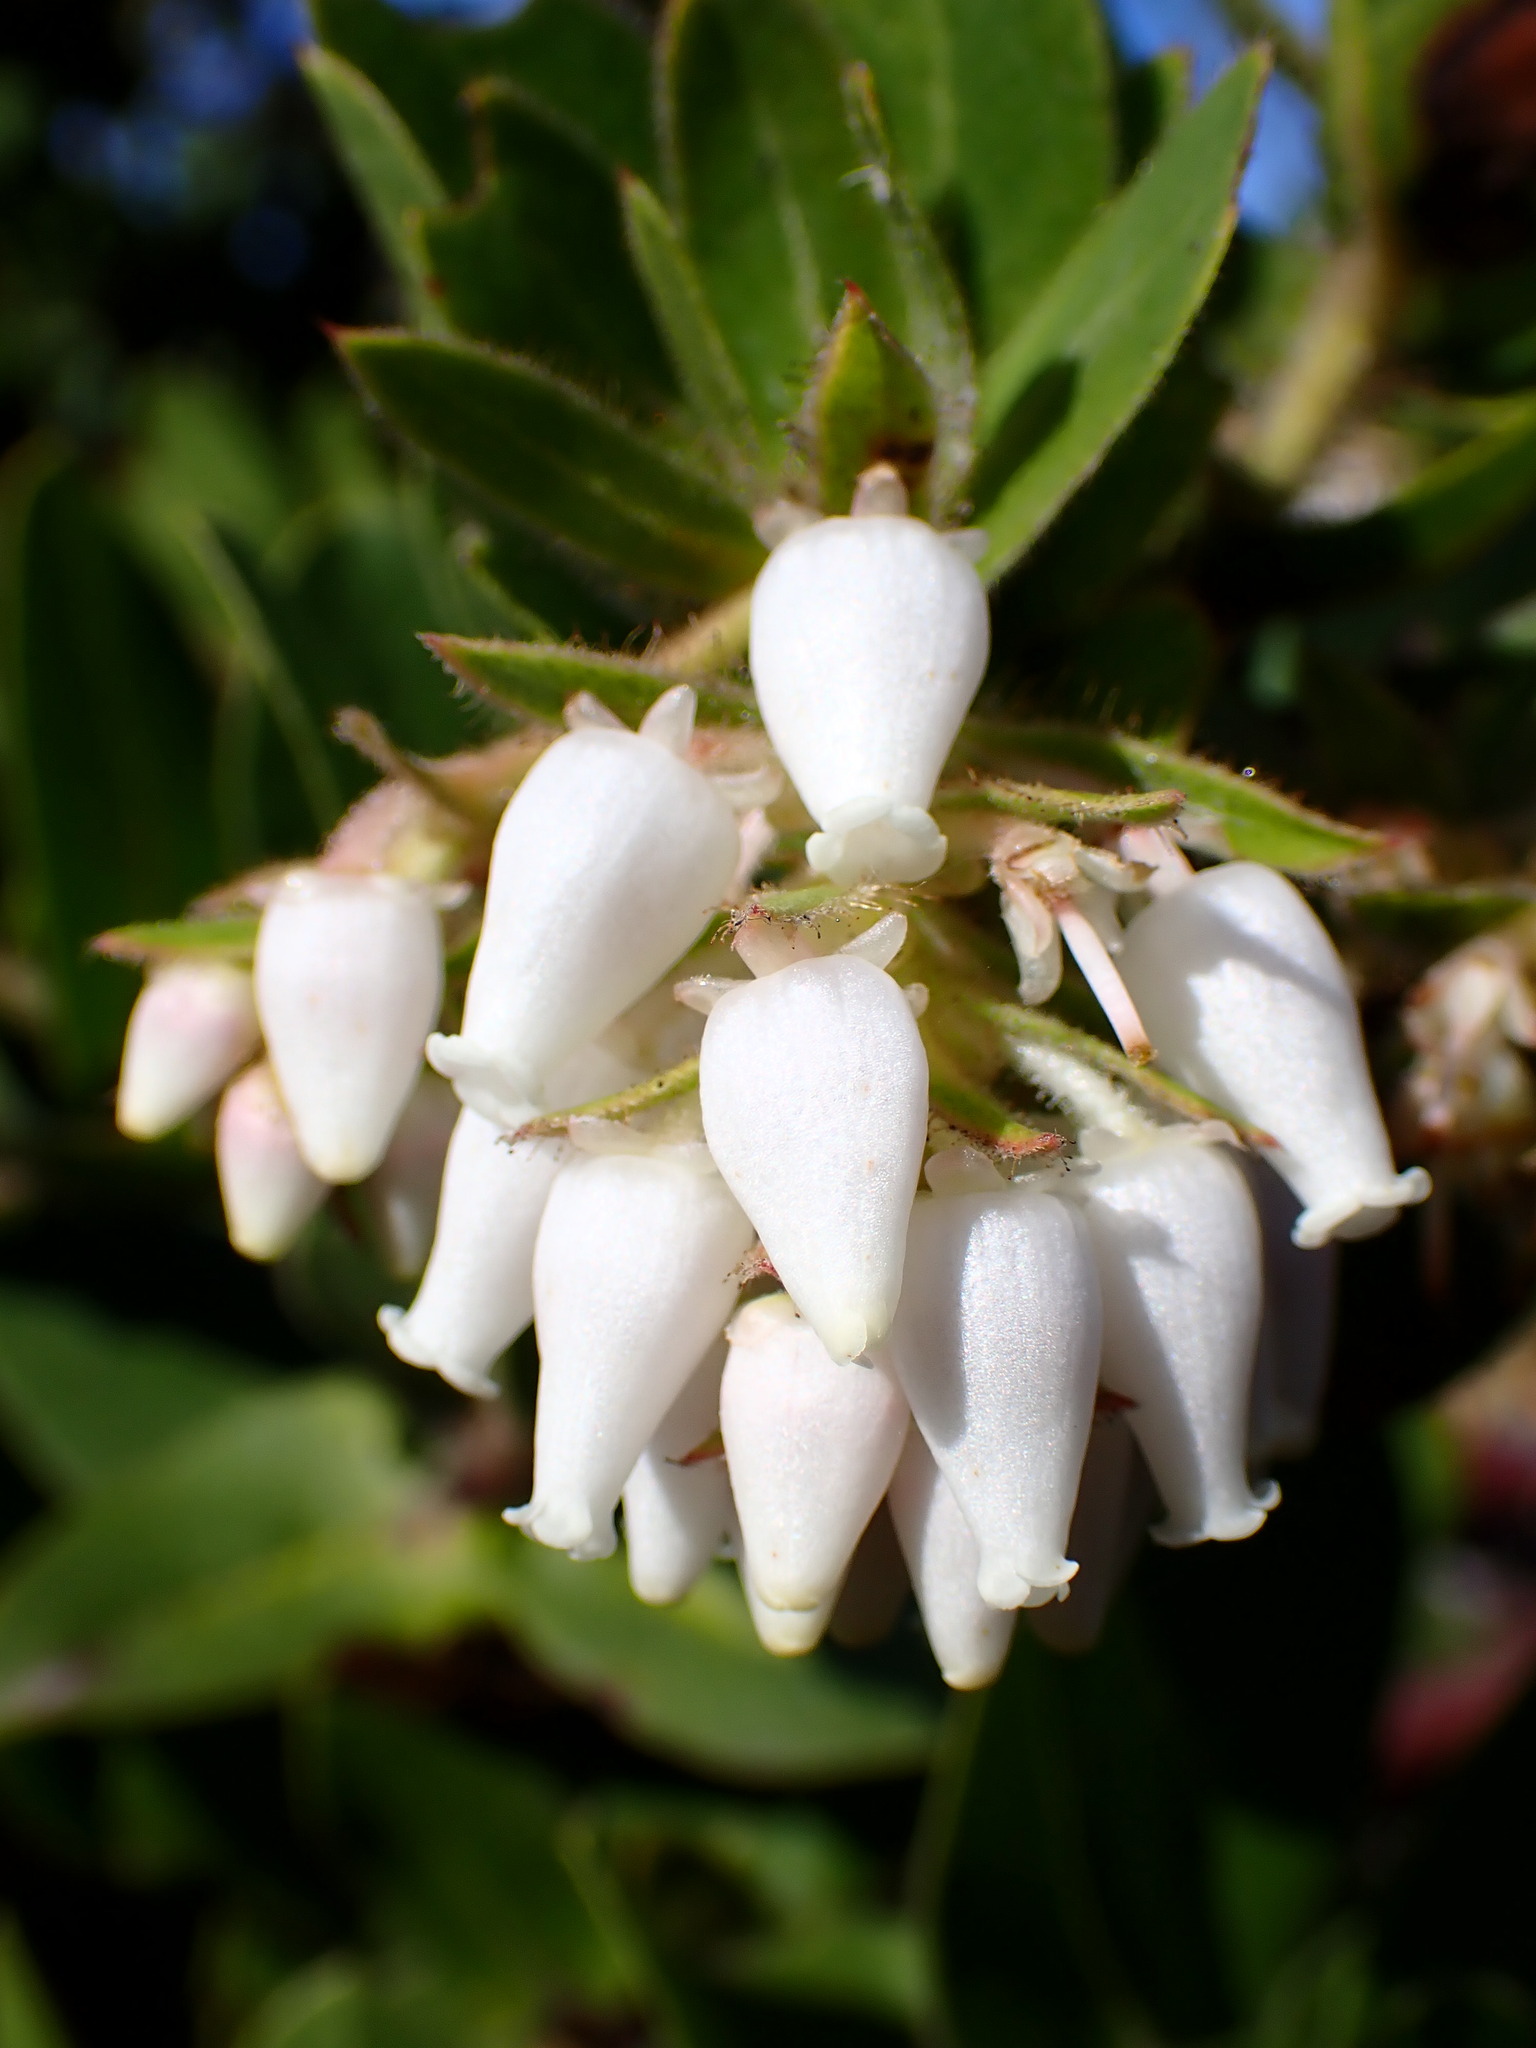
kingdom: Plantae
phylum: Tracheophyta
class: Magnoliopsida
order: Ericales
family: Ericaceae
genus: Arctostaphylos
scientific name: Arctostaphylos montaraensis
